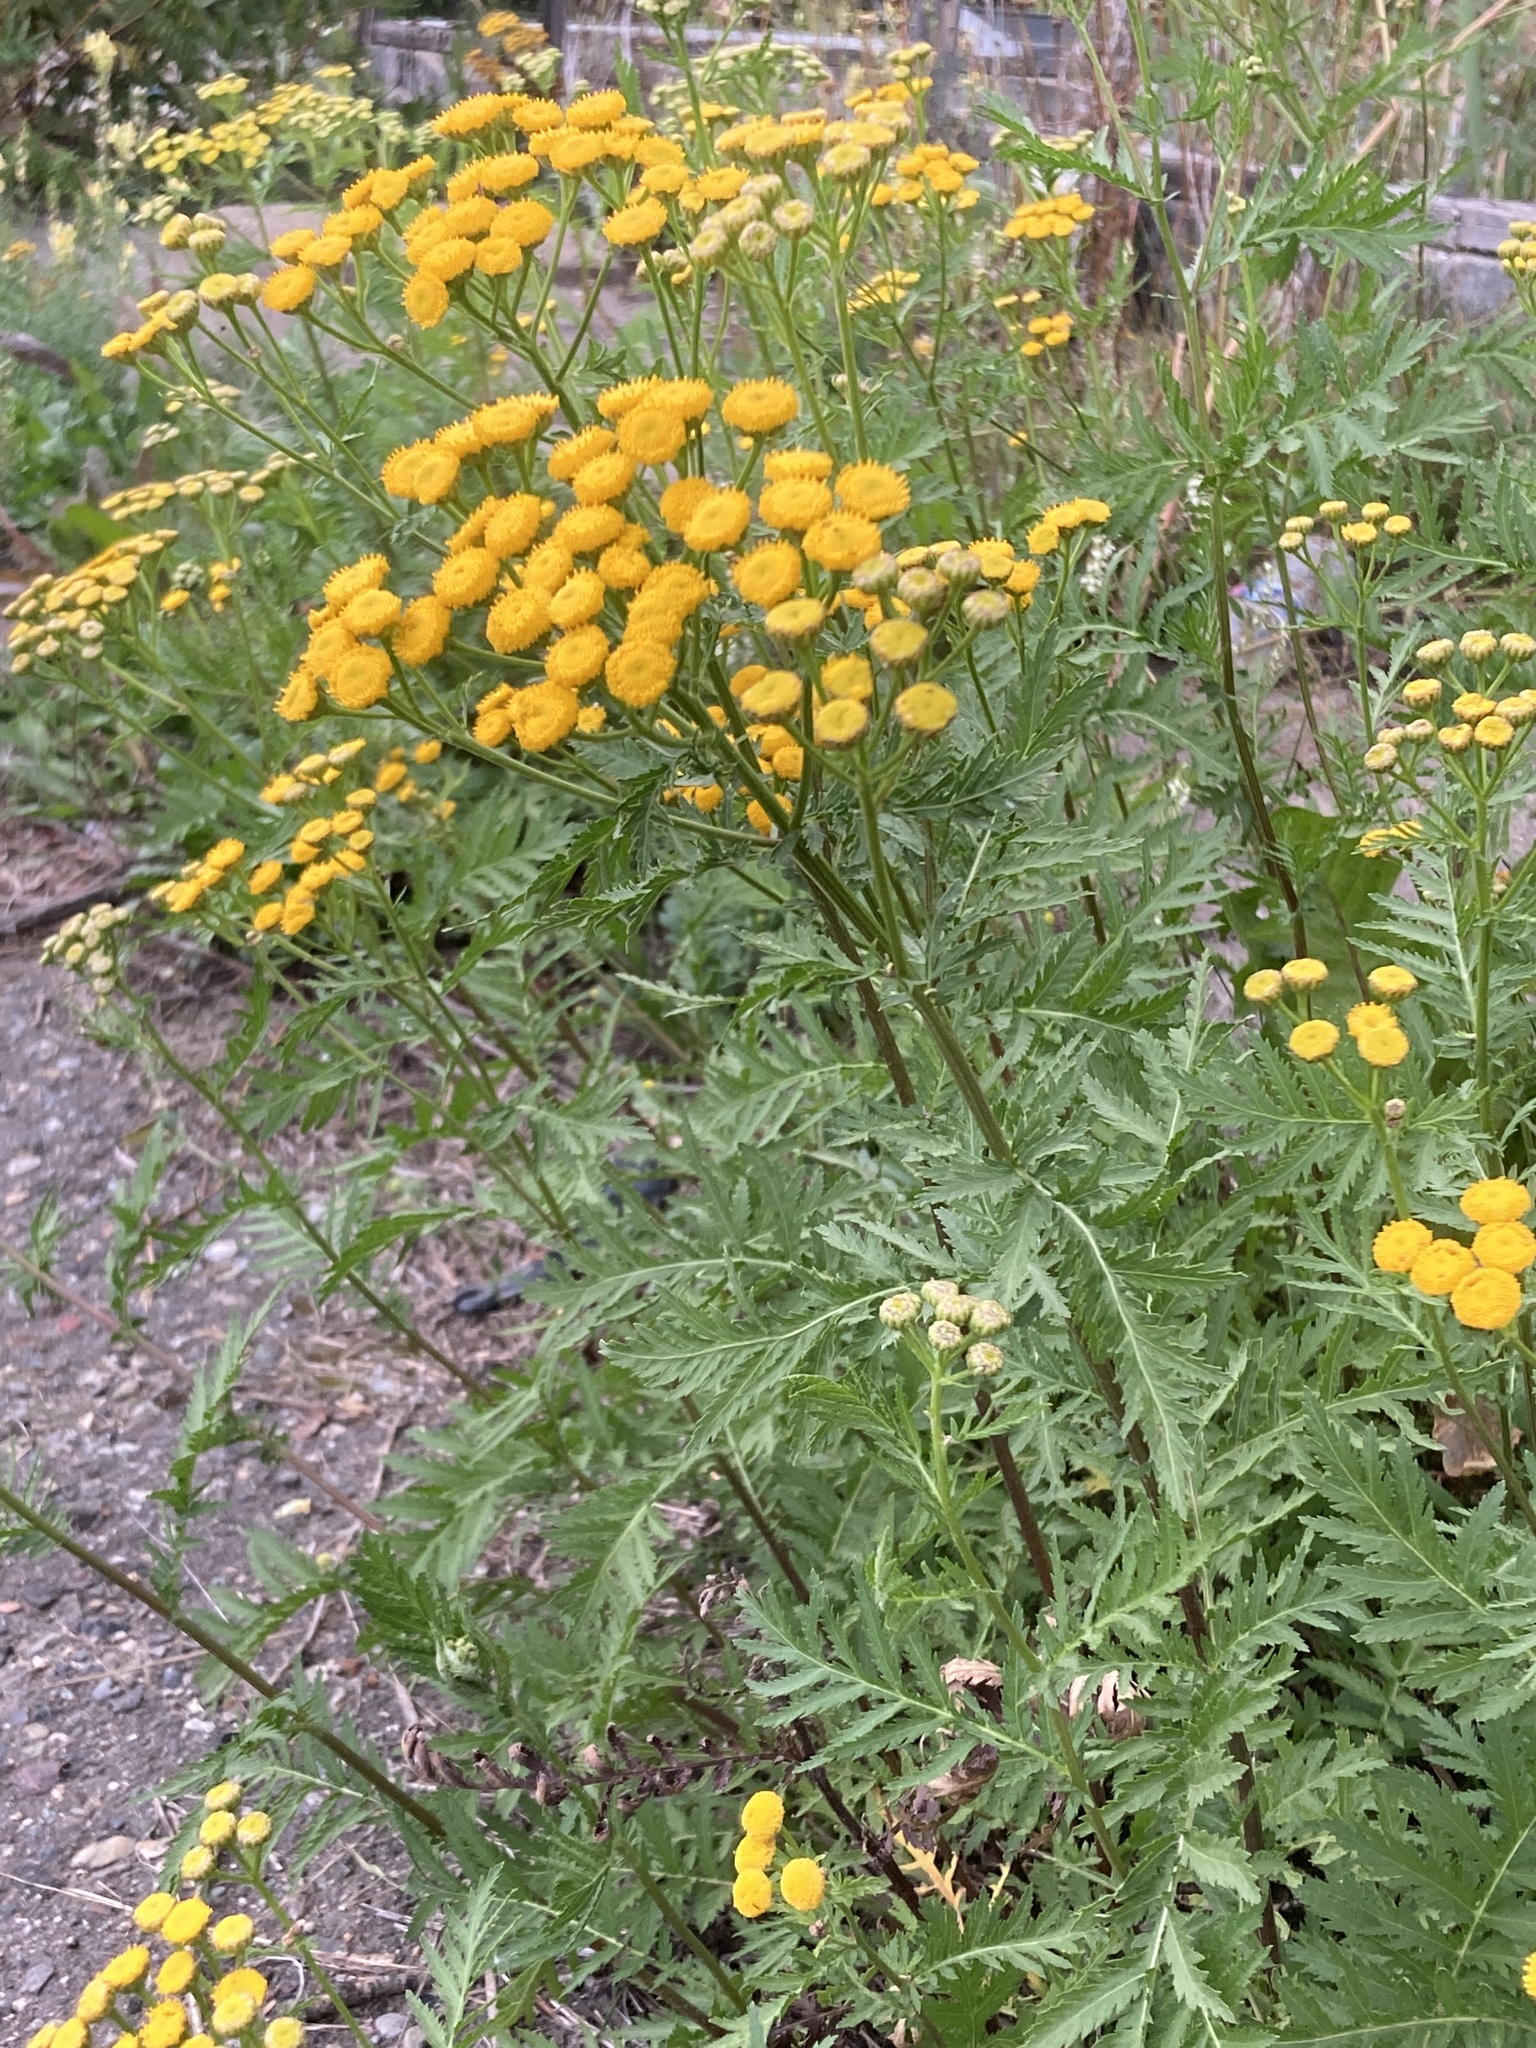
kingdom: Plantae
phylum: Tracheophyta
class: Magnoliopsida
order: Asterales
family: Asteraceae
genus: Tanacetum
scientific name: Tanacetum vulgare
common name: Common tansy
